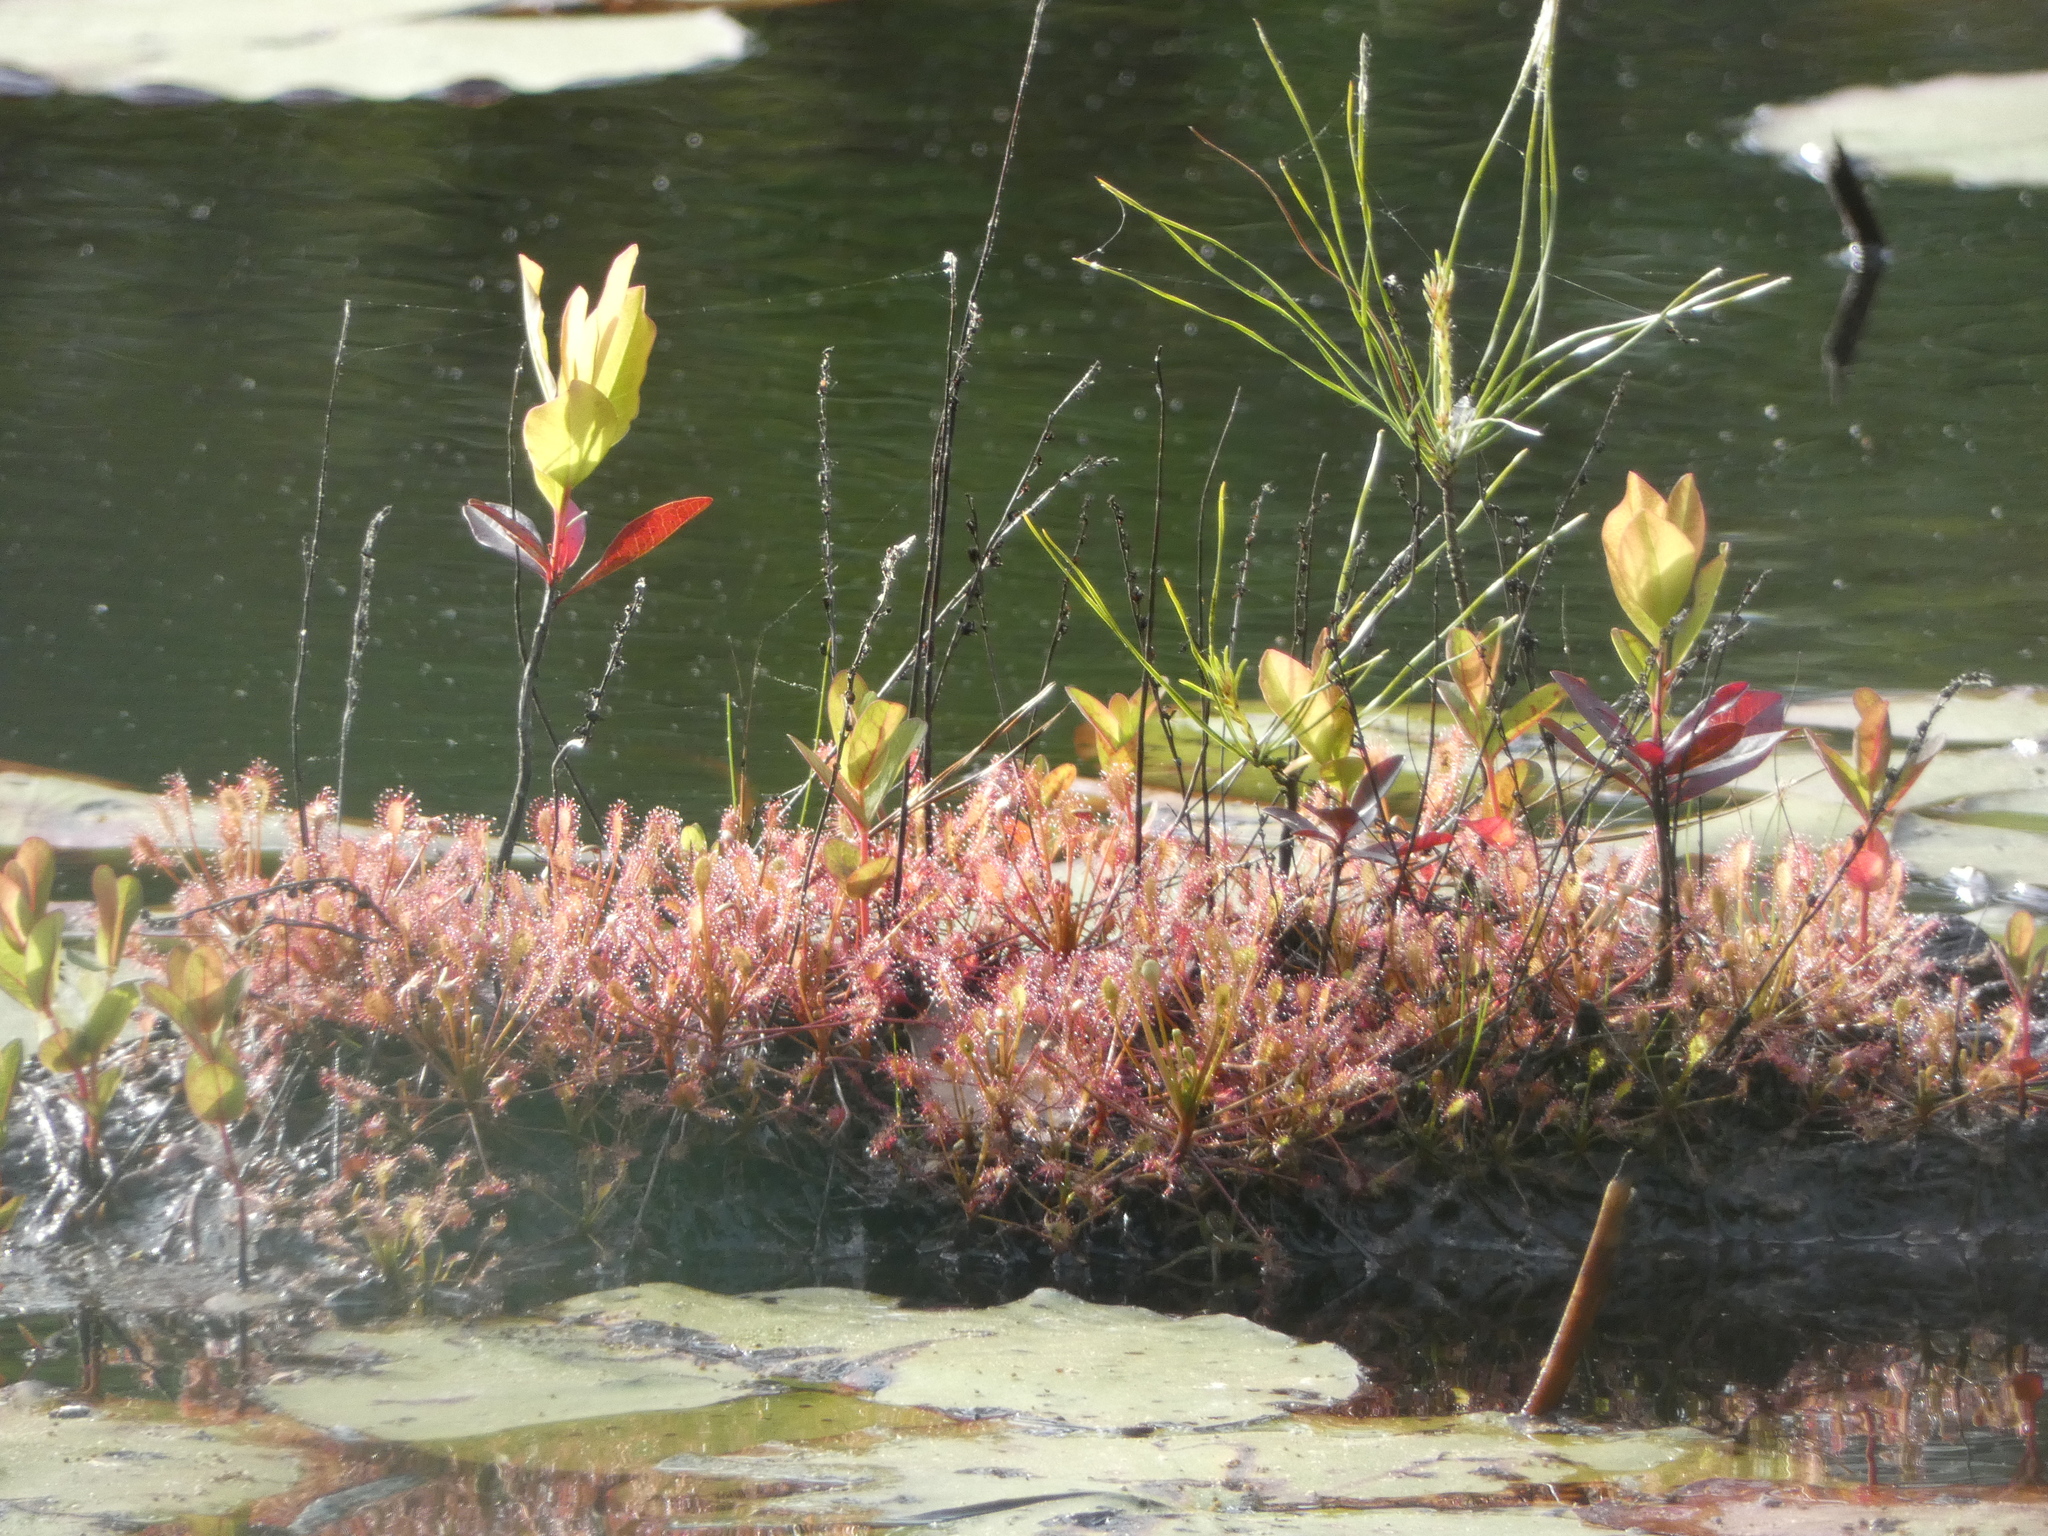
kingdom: Plantae
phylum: Tracheophyta
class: Magnoliopsida
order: Caryophyllales
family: Droseraceae
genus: Drosera
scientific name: Drosera intermedia
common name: Oblong-leaved sundew
